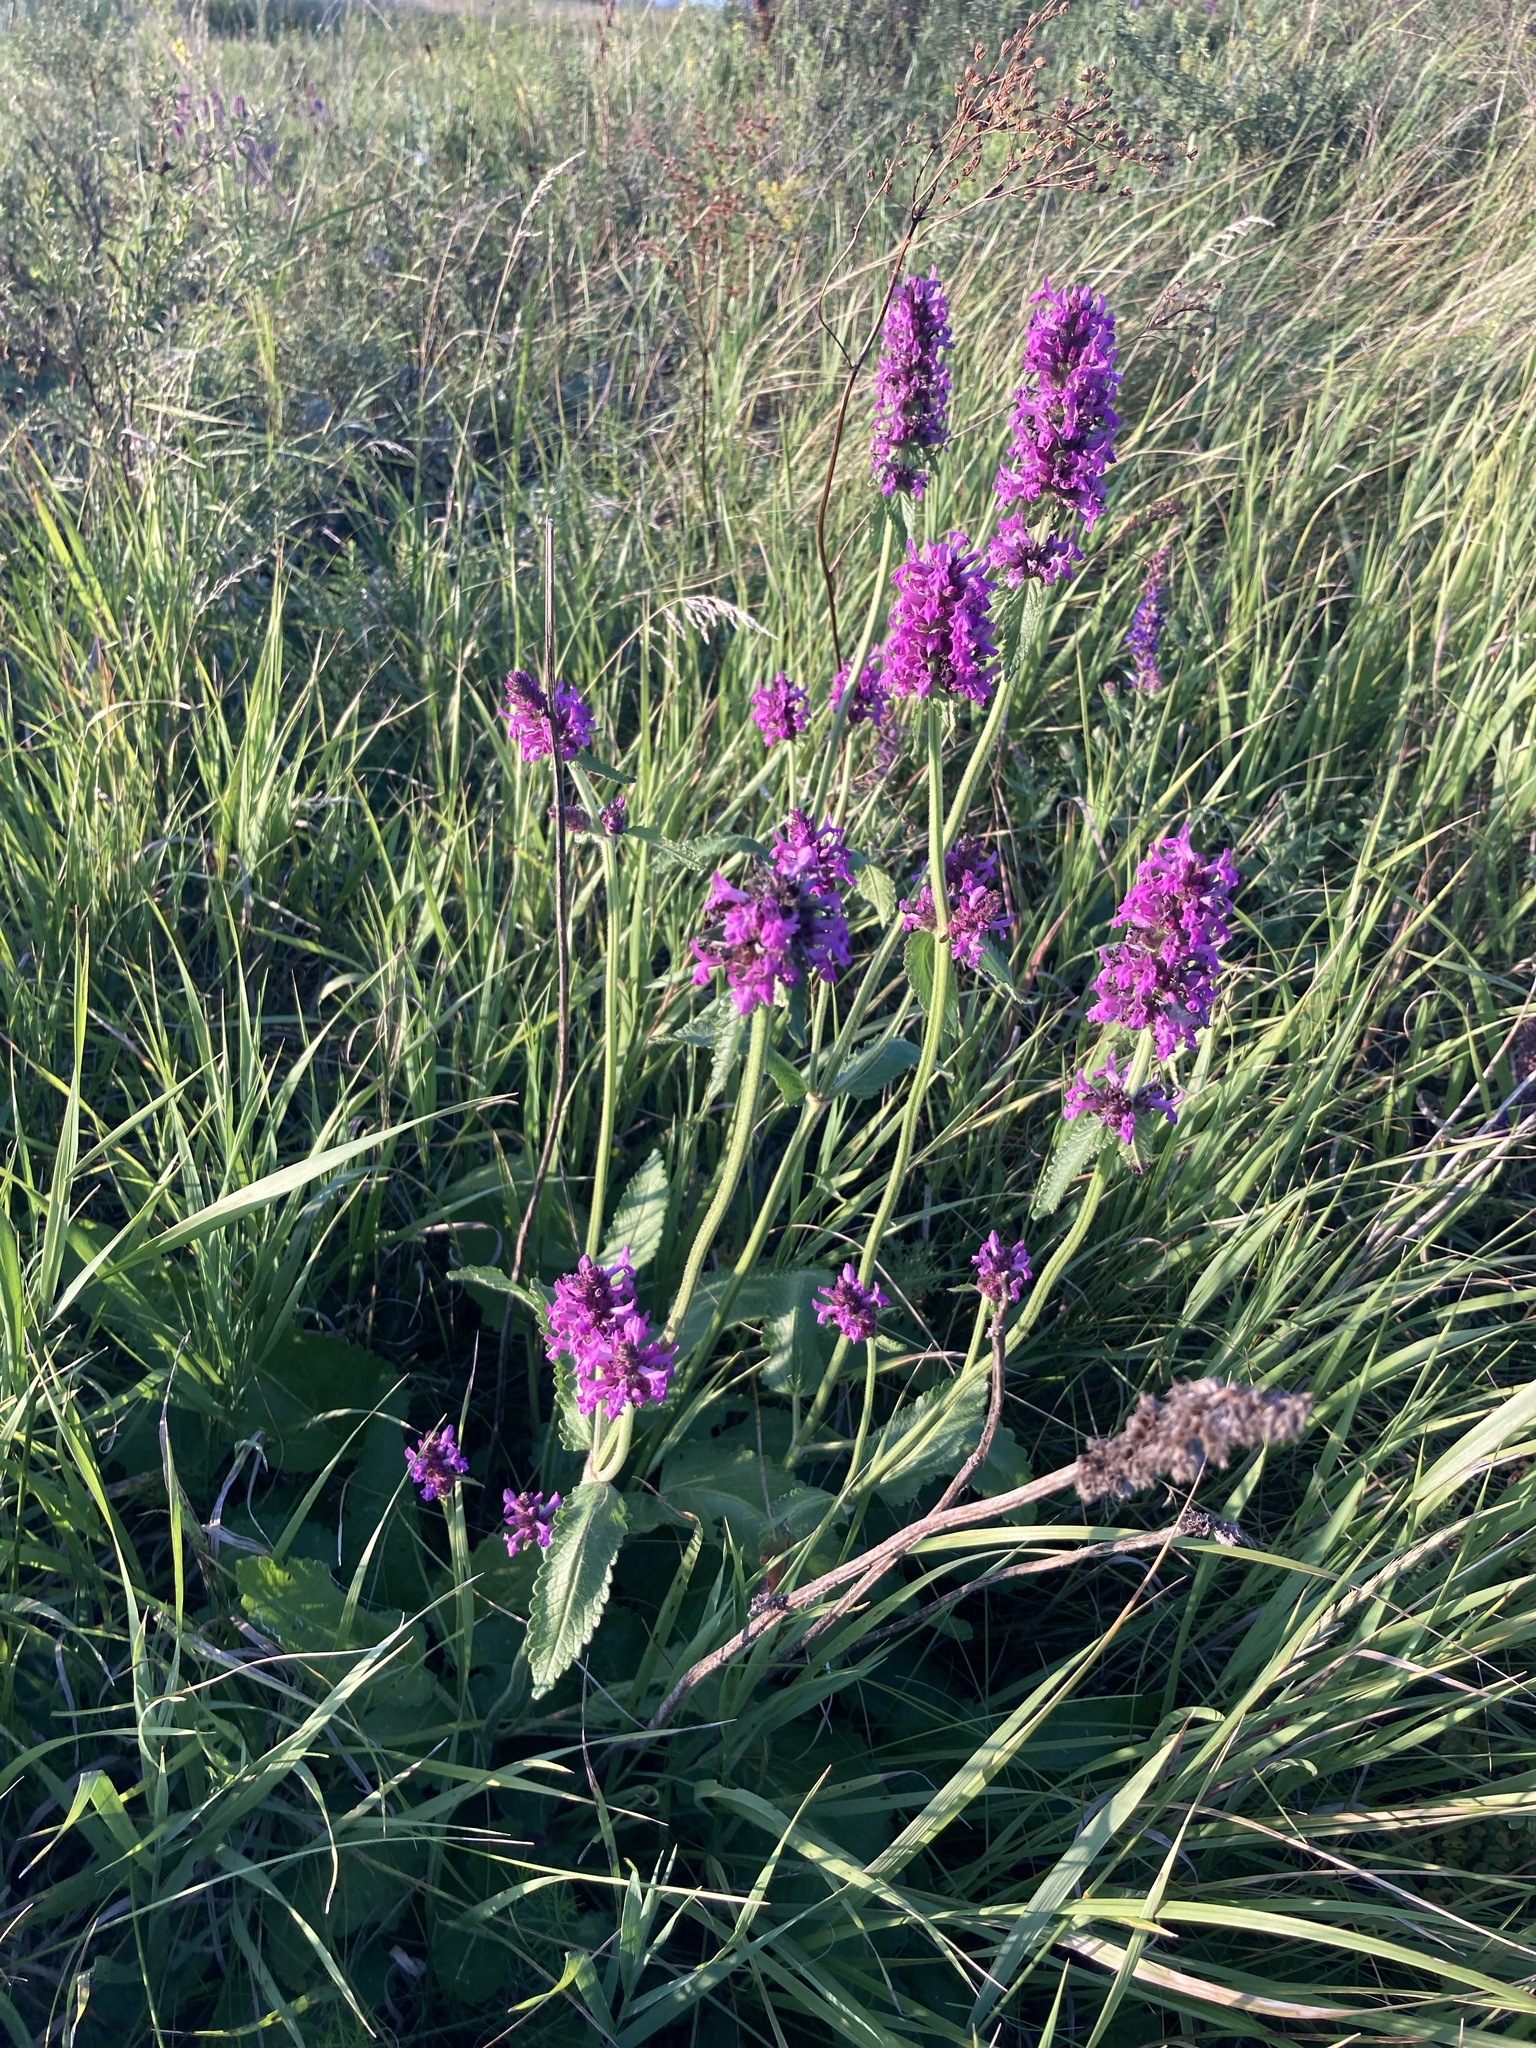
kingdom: Plantae
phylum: Tracheophyta
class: Magnoliopsida
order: Lamiales
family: Lamiaceae
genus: Betonica
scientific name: Betonica officinalis
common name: Bishop's-wort
